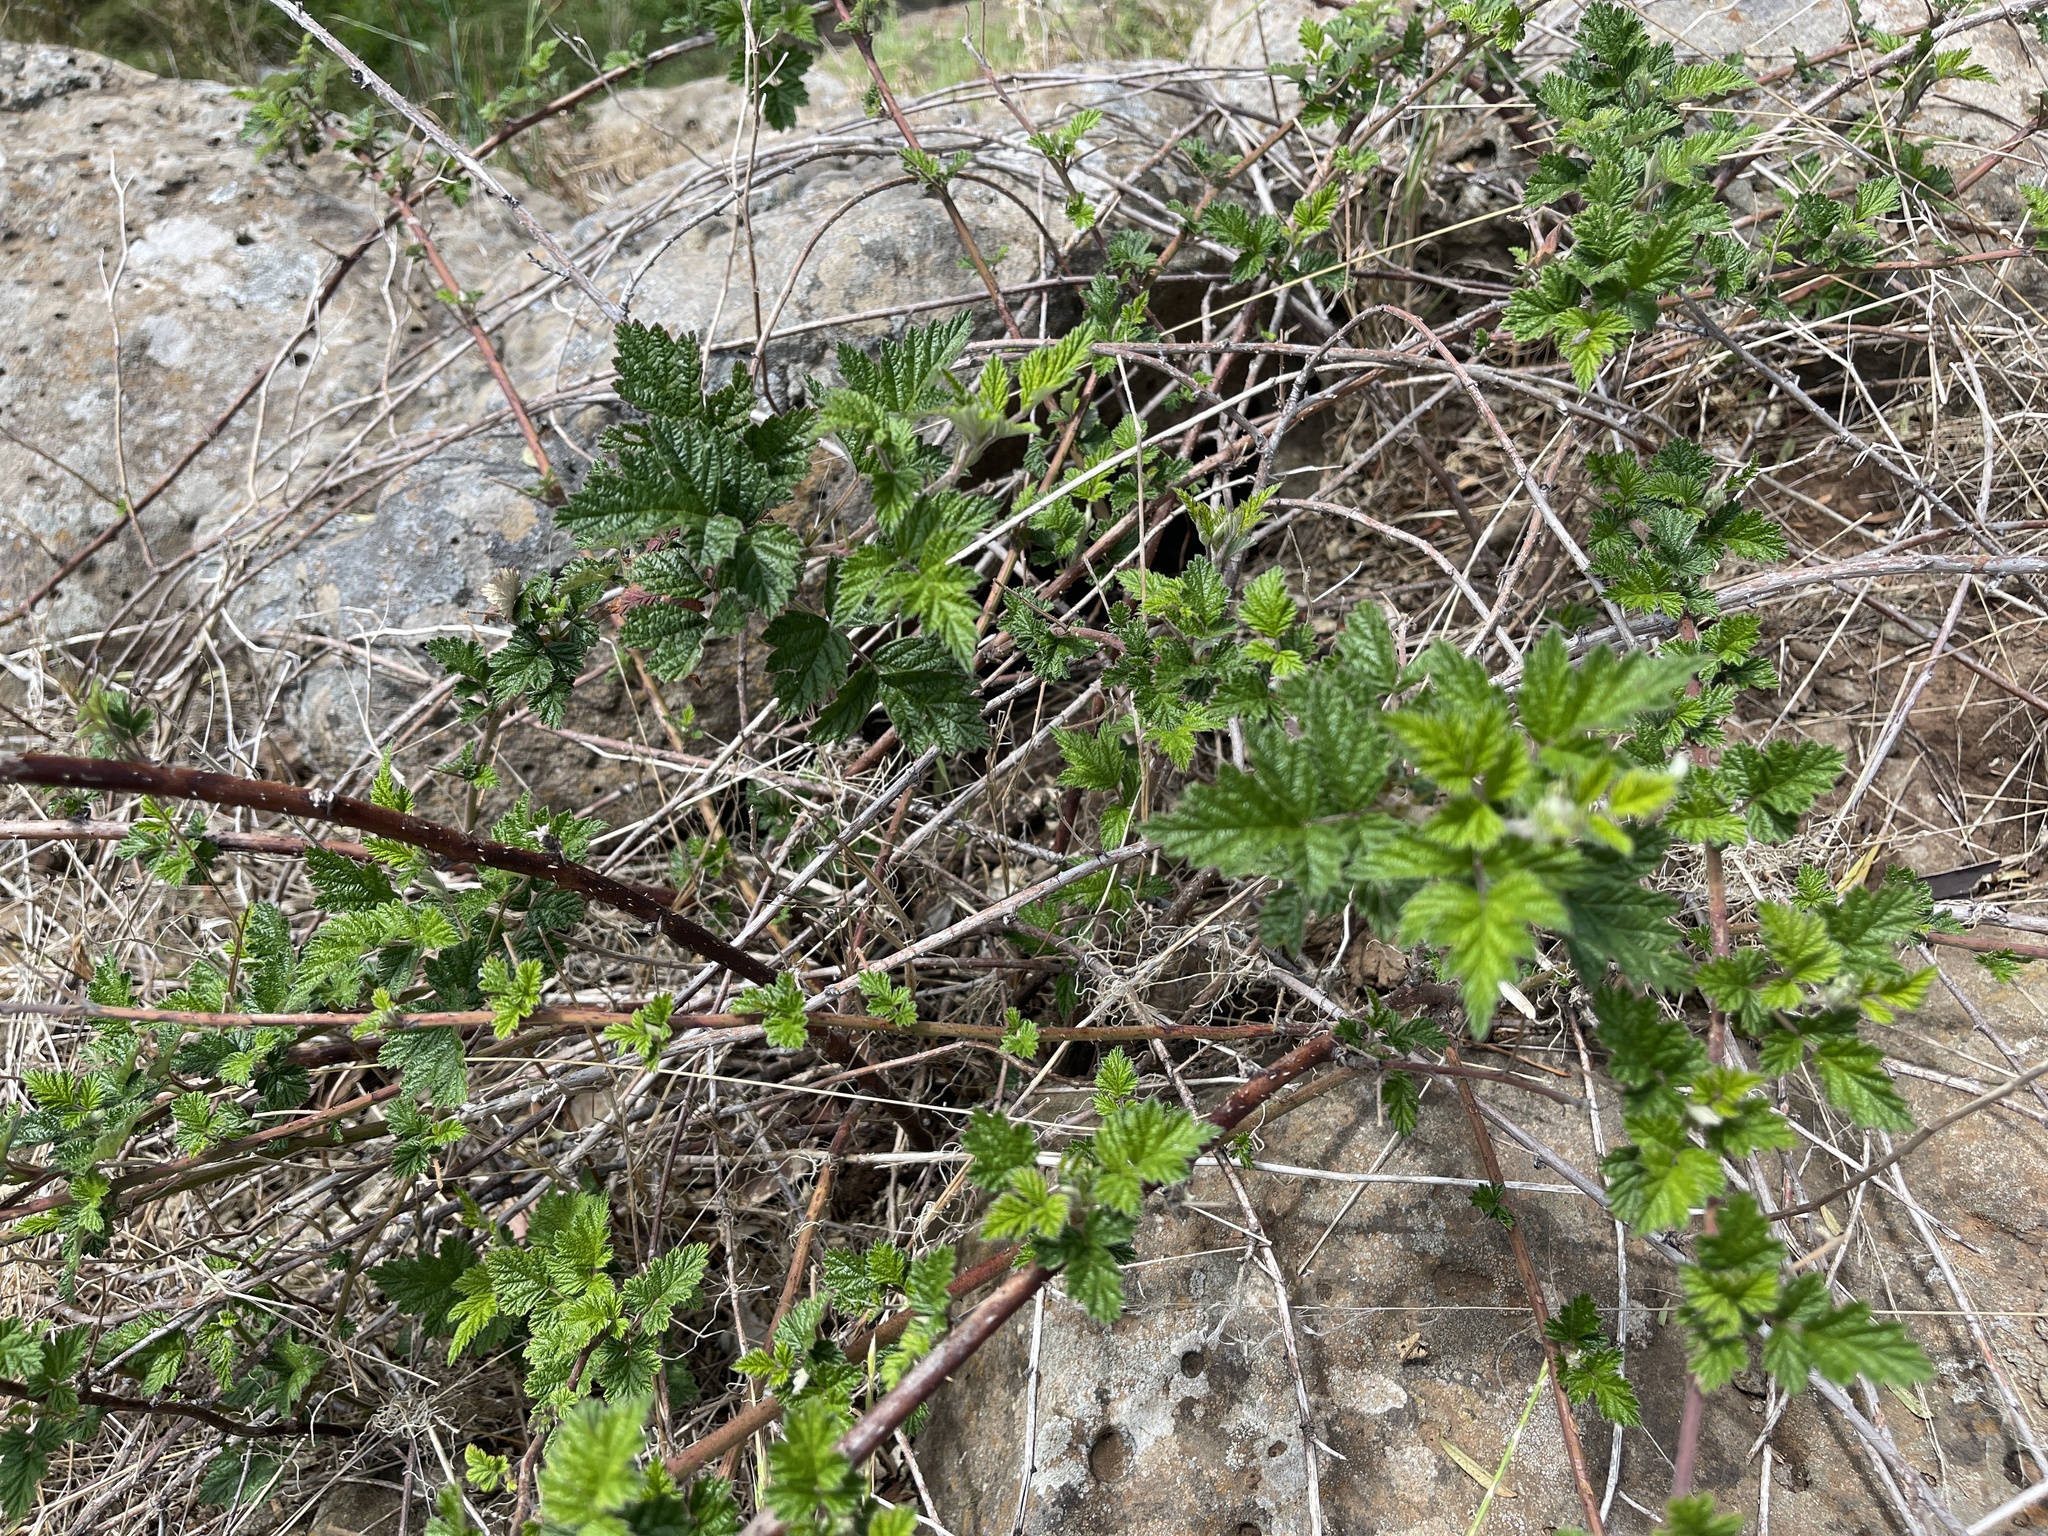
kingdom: Plantae
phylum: Tracheophyta
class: Magnoliopsida
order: Rosales
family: Rosaceae
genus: Rubus
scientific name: Rubus parvifolius
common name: Threeleaf blackberry
